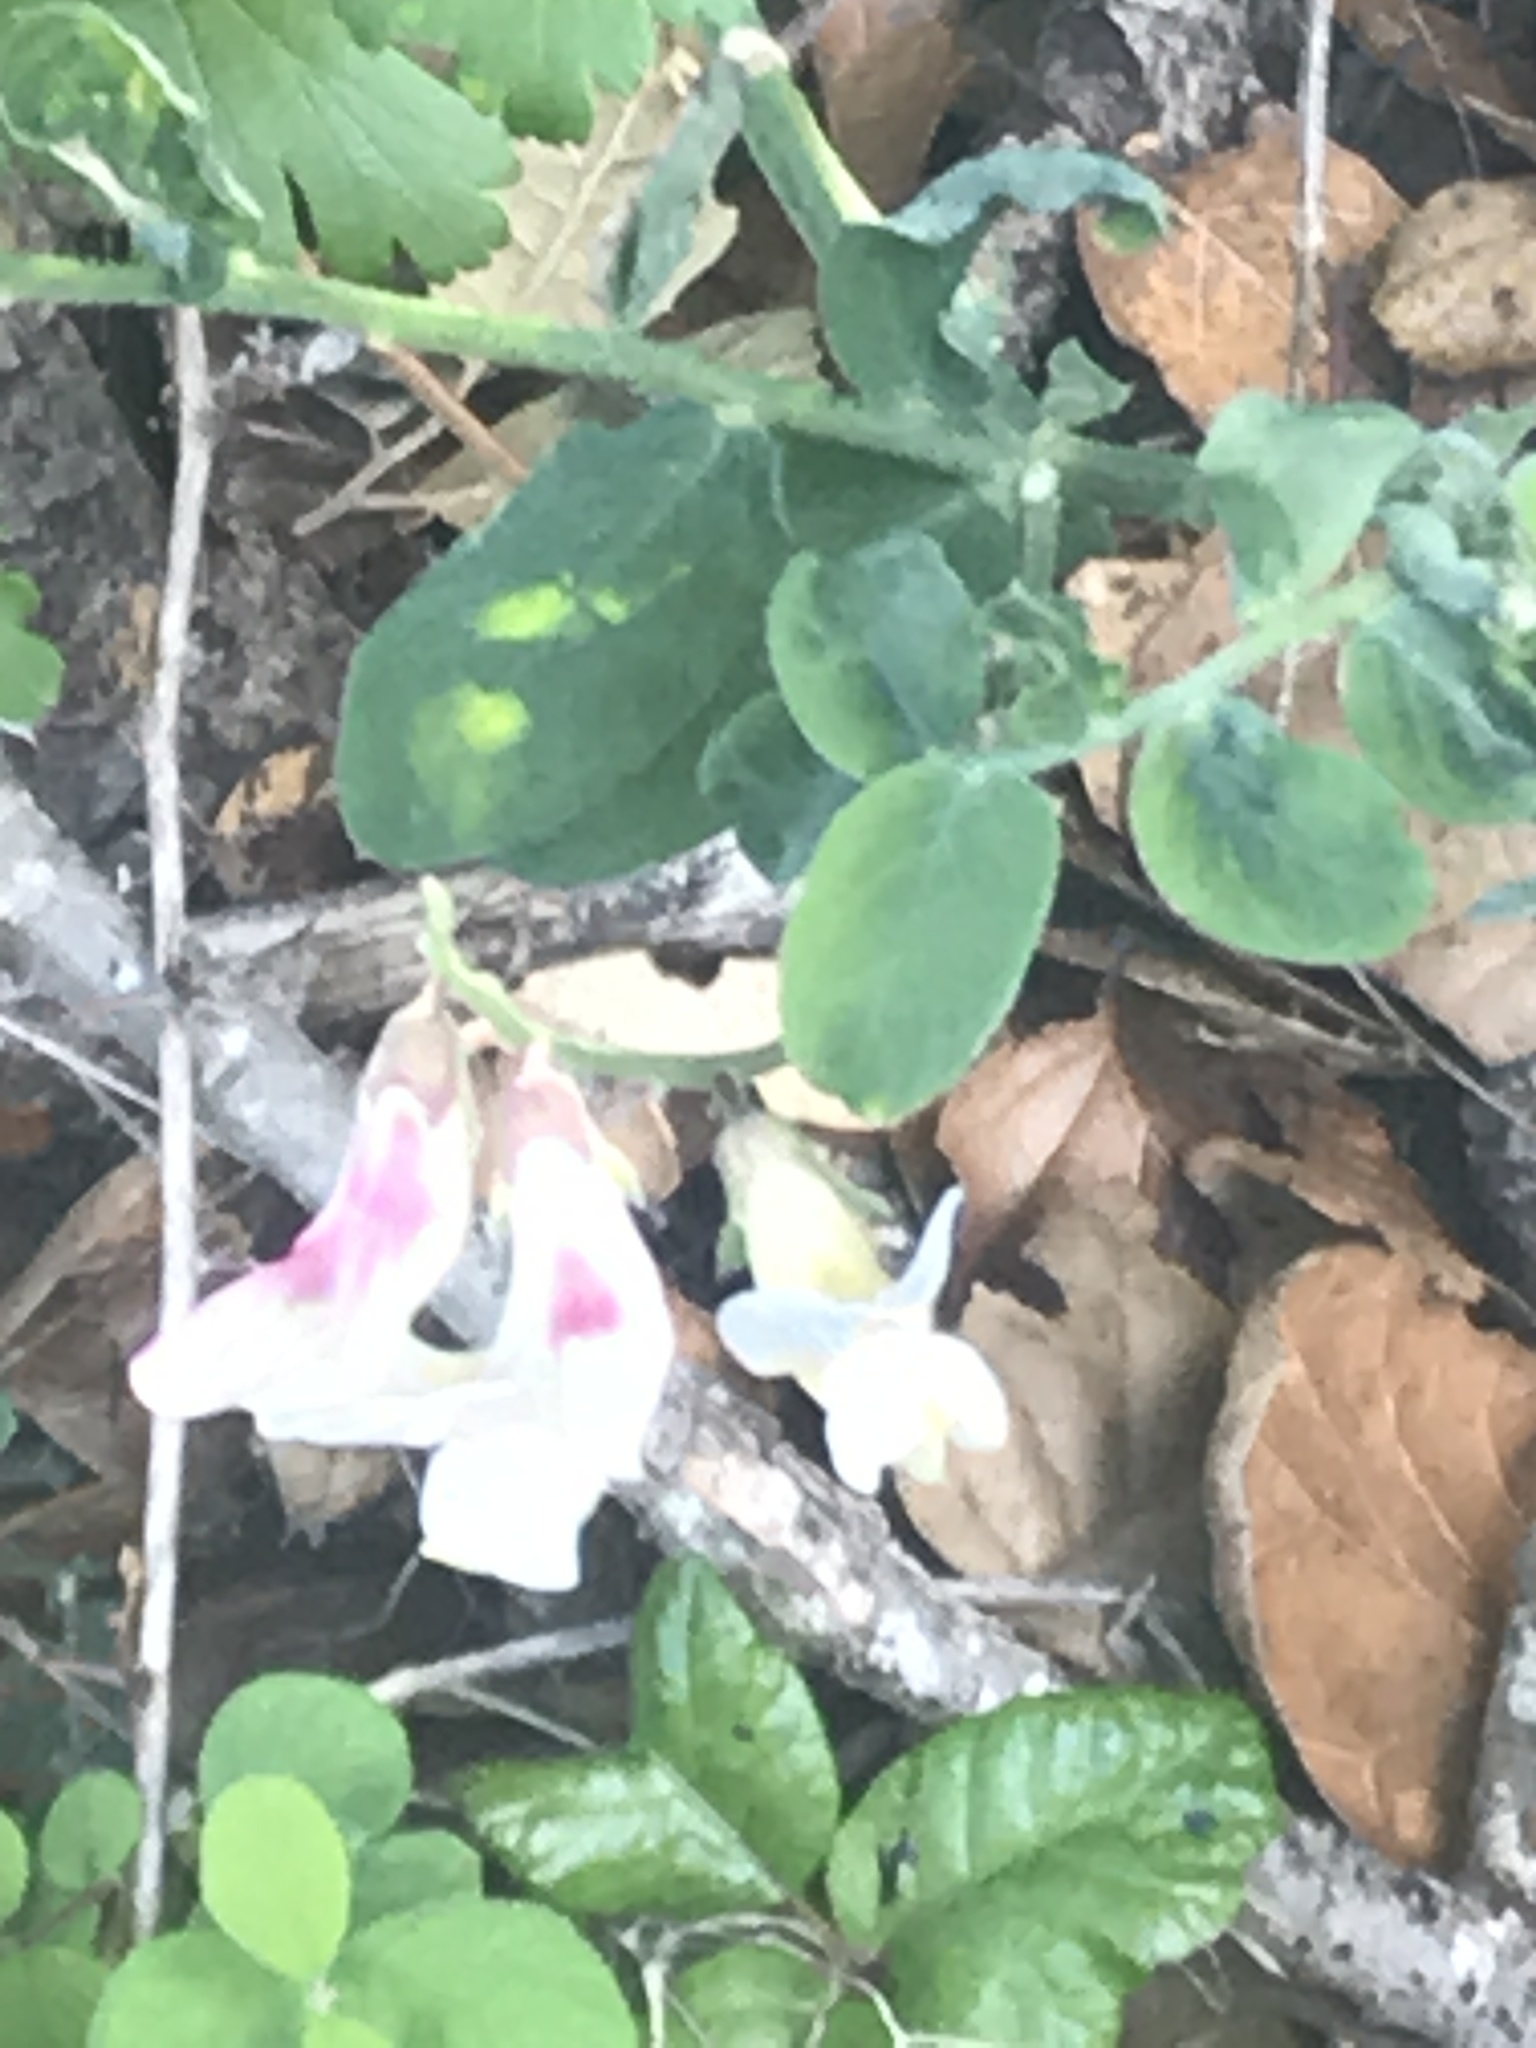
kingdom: Plantae
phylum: Tracheophyta
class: Magnoliopsida
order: Fabales
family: Fabaceae
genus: Lathyrus
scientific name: Lathyrus vestitus
